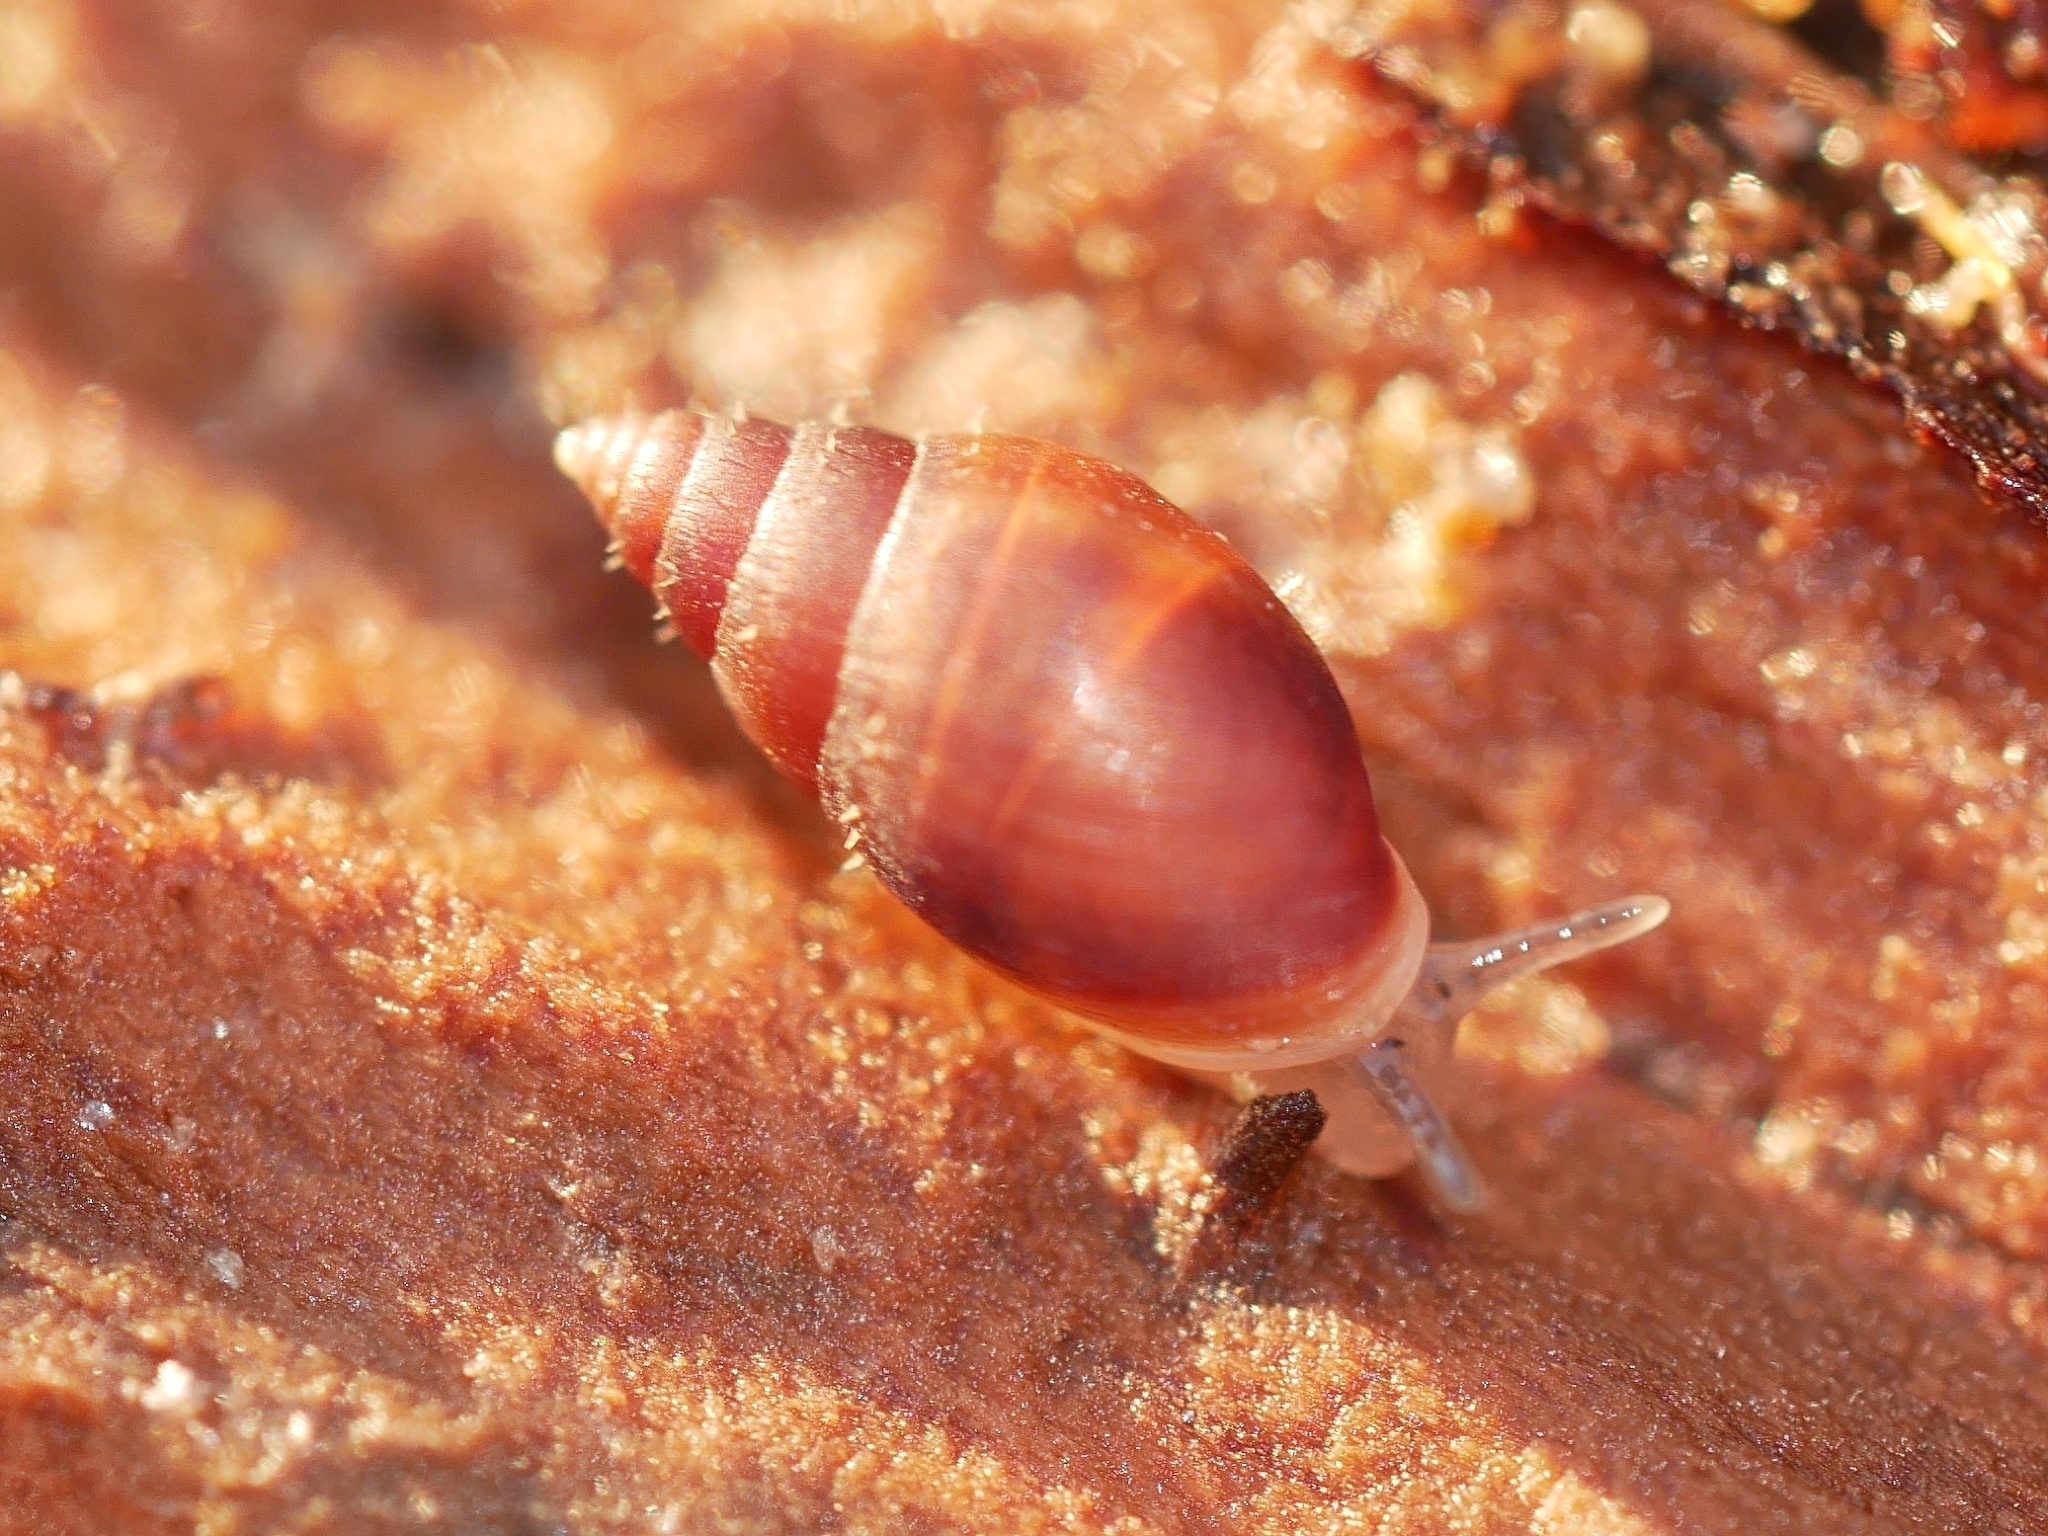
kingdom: Animalia
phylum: Mollusca
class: Gastropoda
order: Ellobiida
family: Ellobiidae
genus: Myosotella
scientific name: Myosotella myosotis
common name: Mouse-eared snail
